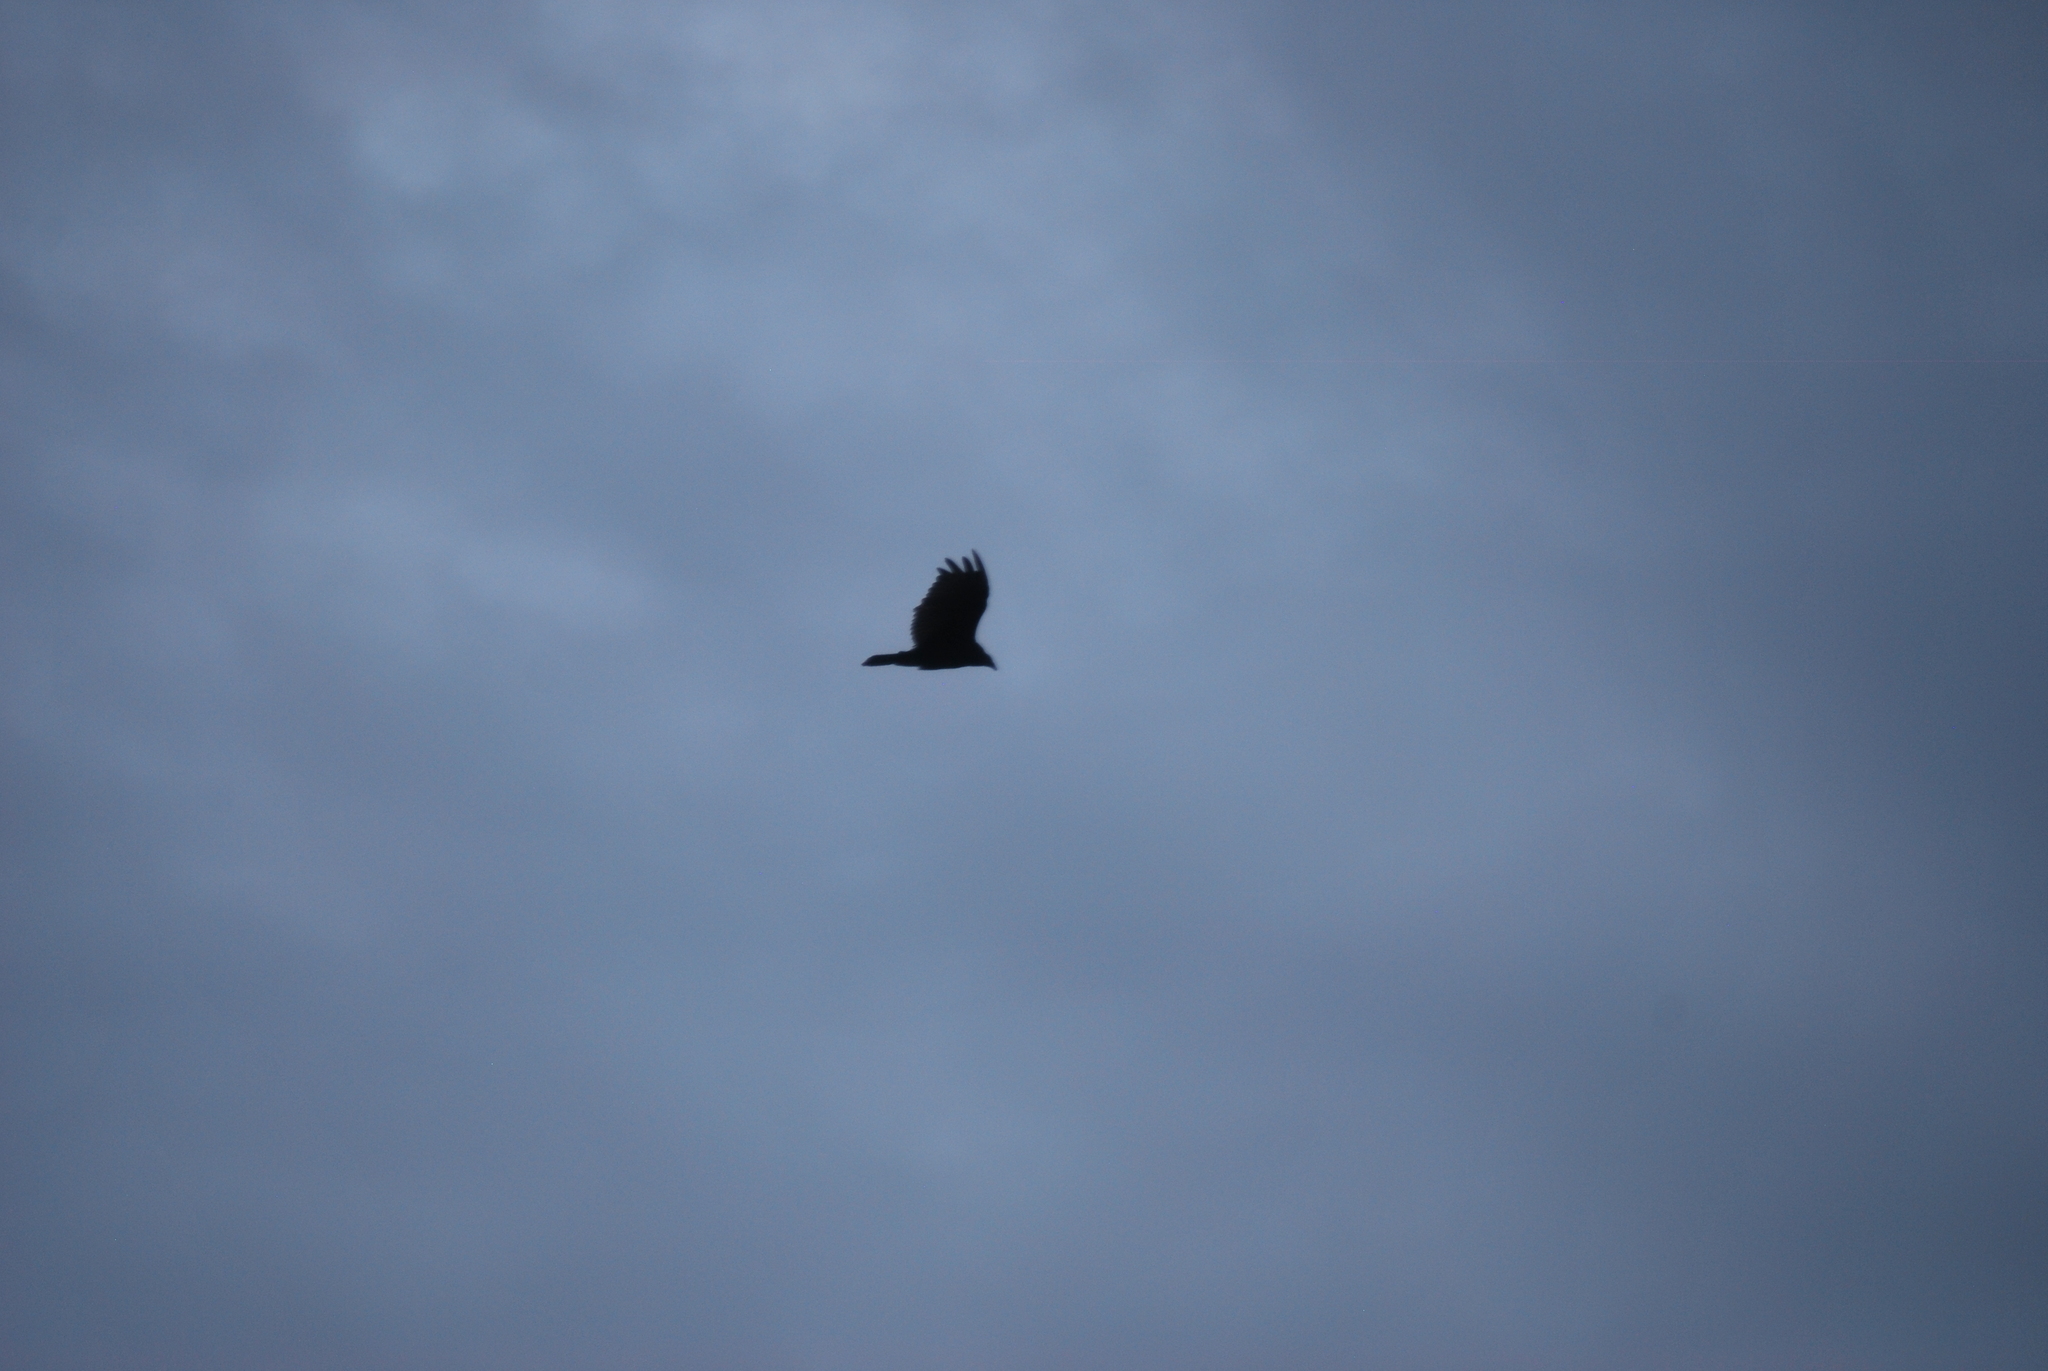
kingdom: Animalia
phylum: Chordata
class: Aves
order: Accipitriformes
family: Cathartidae
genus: Cathartes
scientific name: Cathartes aura
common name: Turkey vulture
